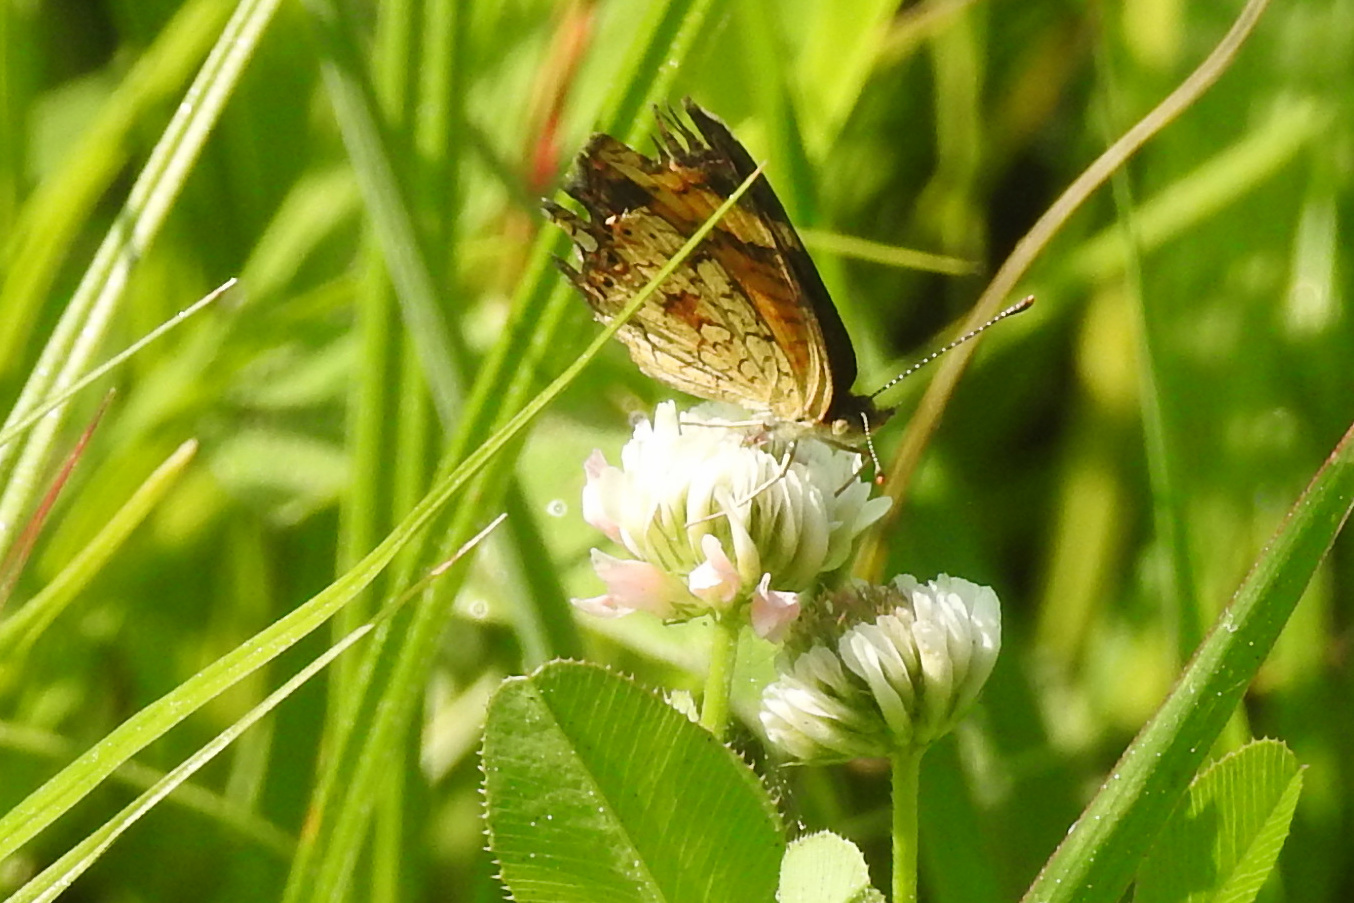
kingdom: Animalia
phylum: Arthropoda
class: Insecta
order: Lepidoptera
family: Nymphalidae
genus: Phyciodes
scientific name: Phyciodes tharos
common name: Pearl crescent
